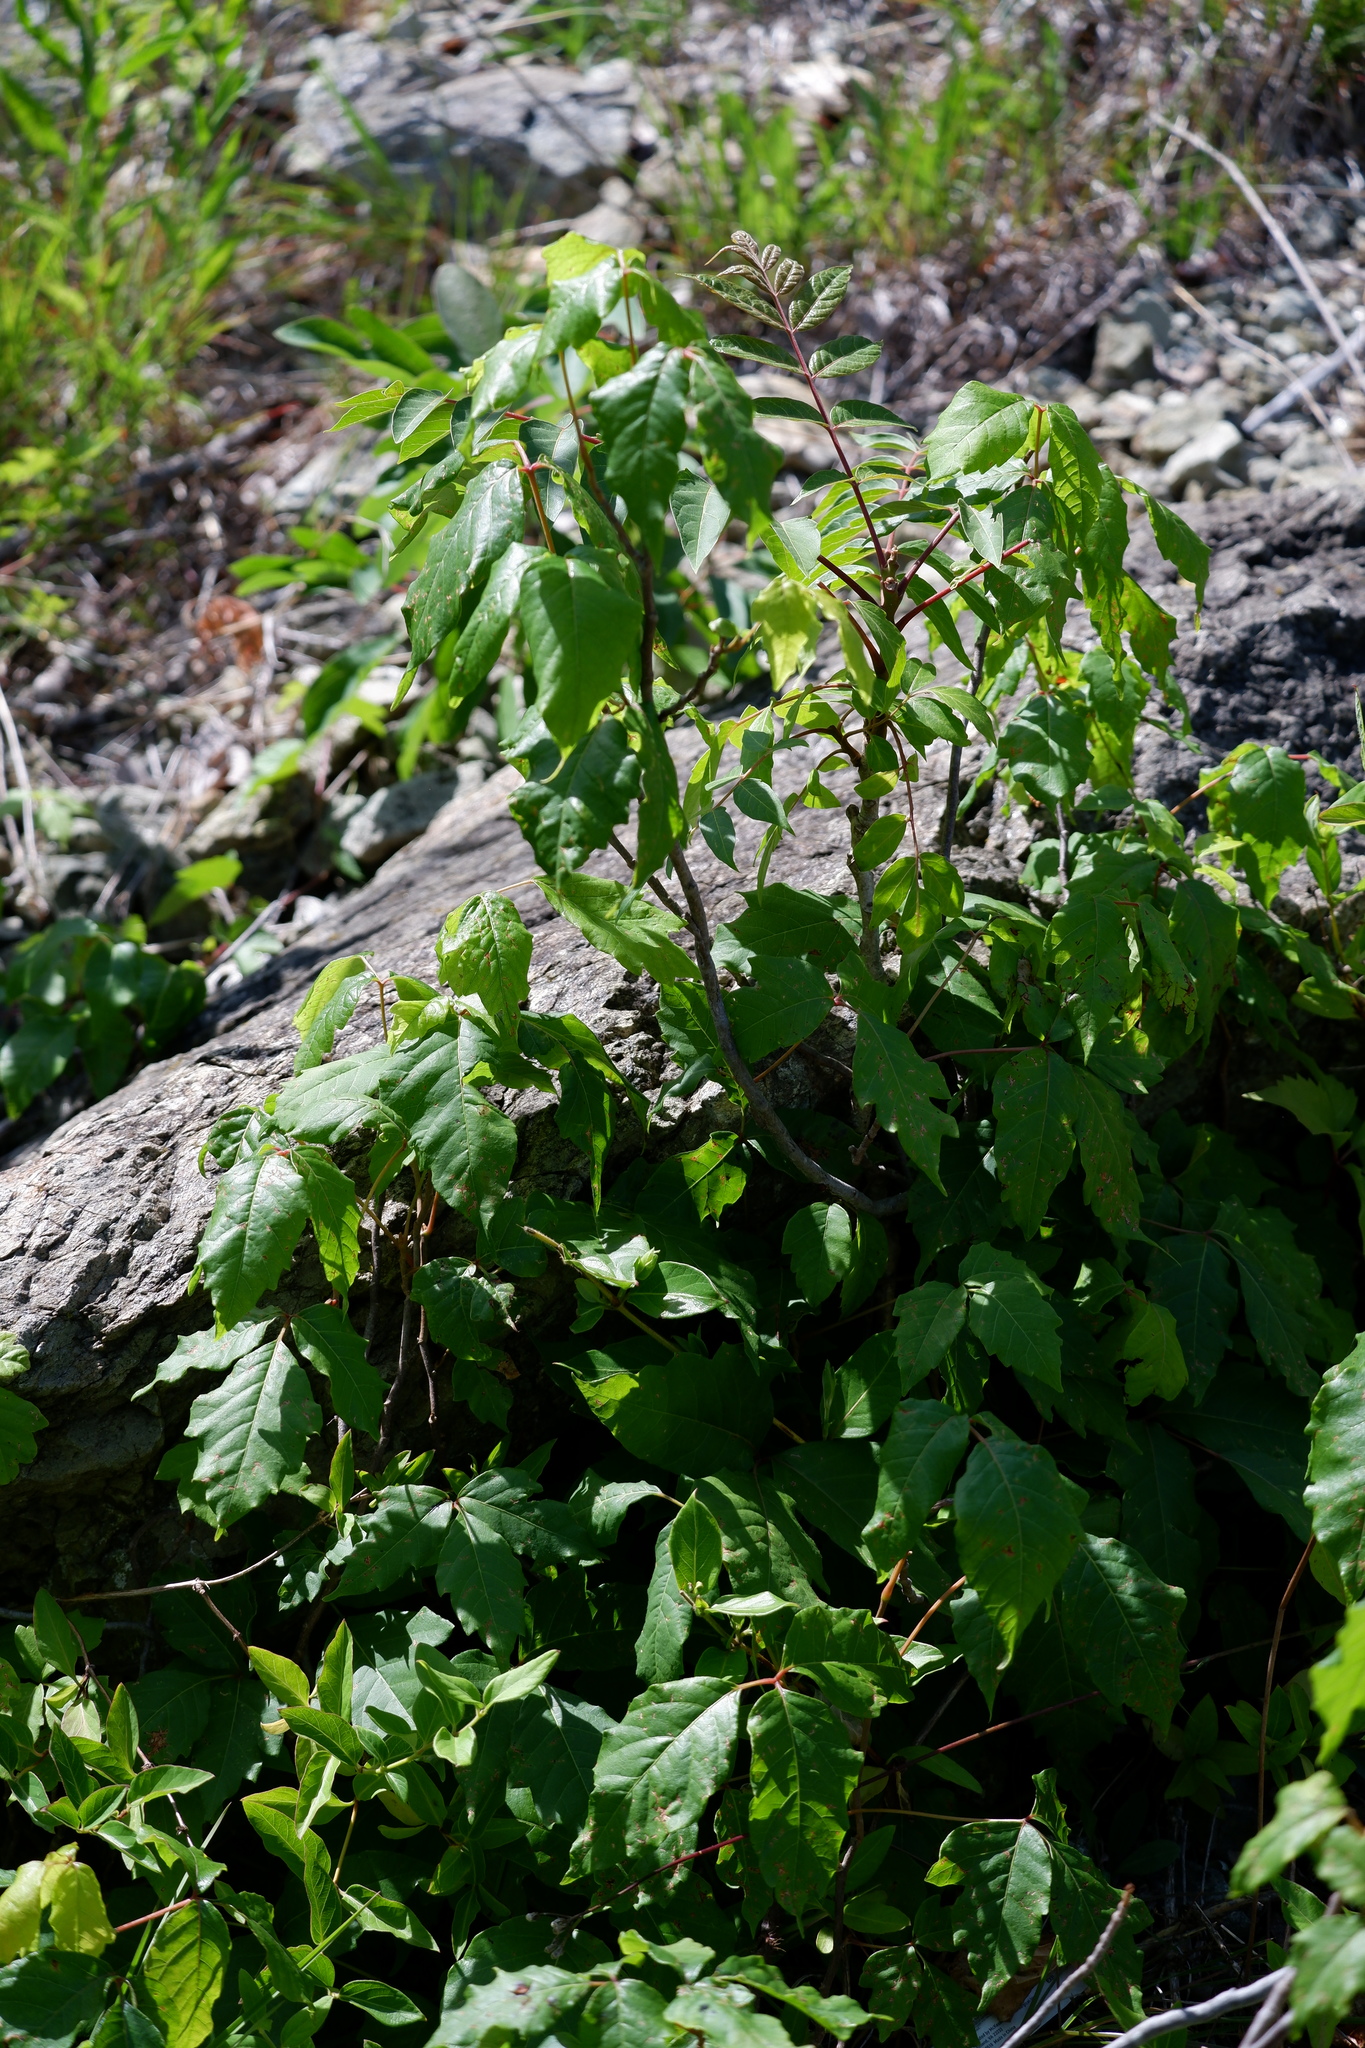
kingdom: Plantae
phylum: Tracheophyta
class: Magnoliopsida
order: Sapindales
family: Anacardiaceae
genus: Toxicodendron
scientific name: Toxicodendron radicans
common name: Poison ivy
